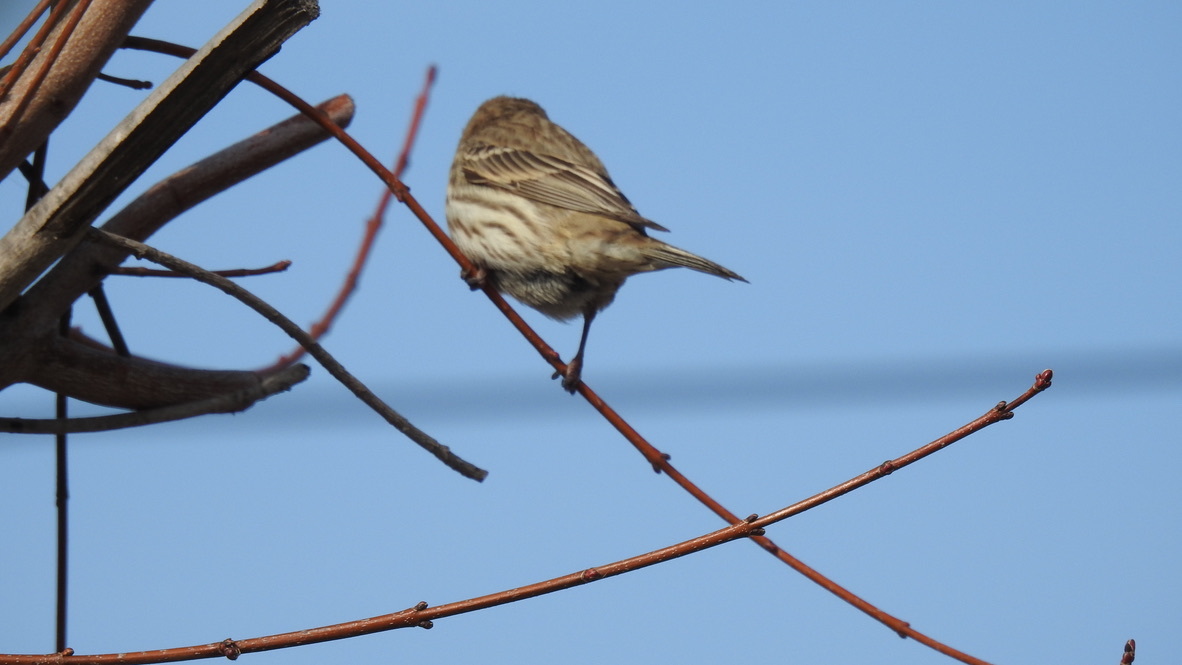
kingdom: Animalia
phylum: Chordata
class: Aves
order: Passeriformes
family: Fringillidae
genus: Haemorhous
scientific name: Haemorhous mexicanus
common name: House finch
